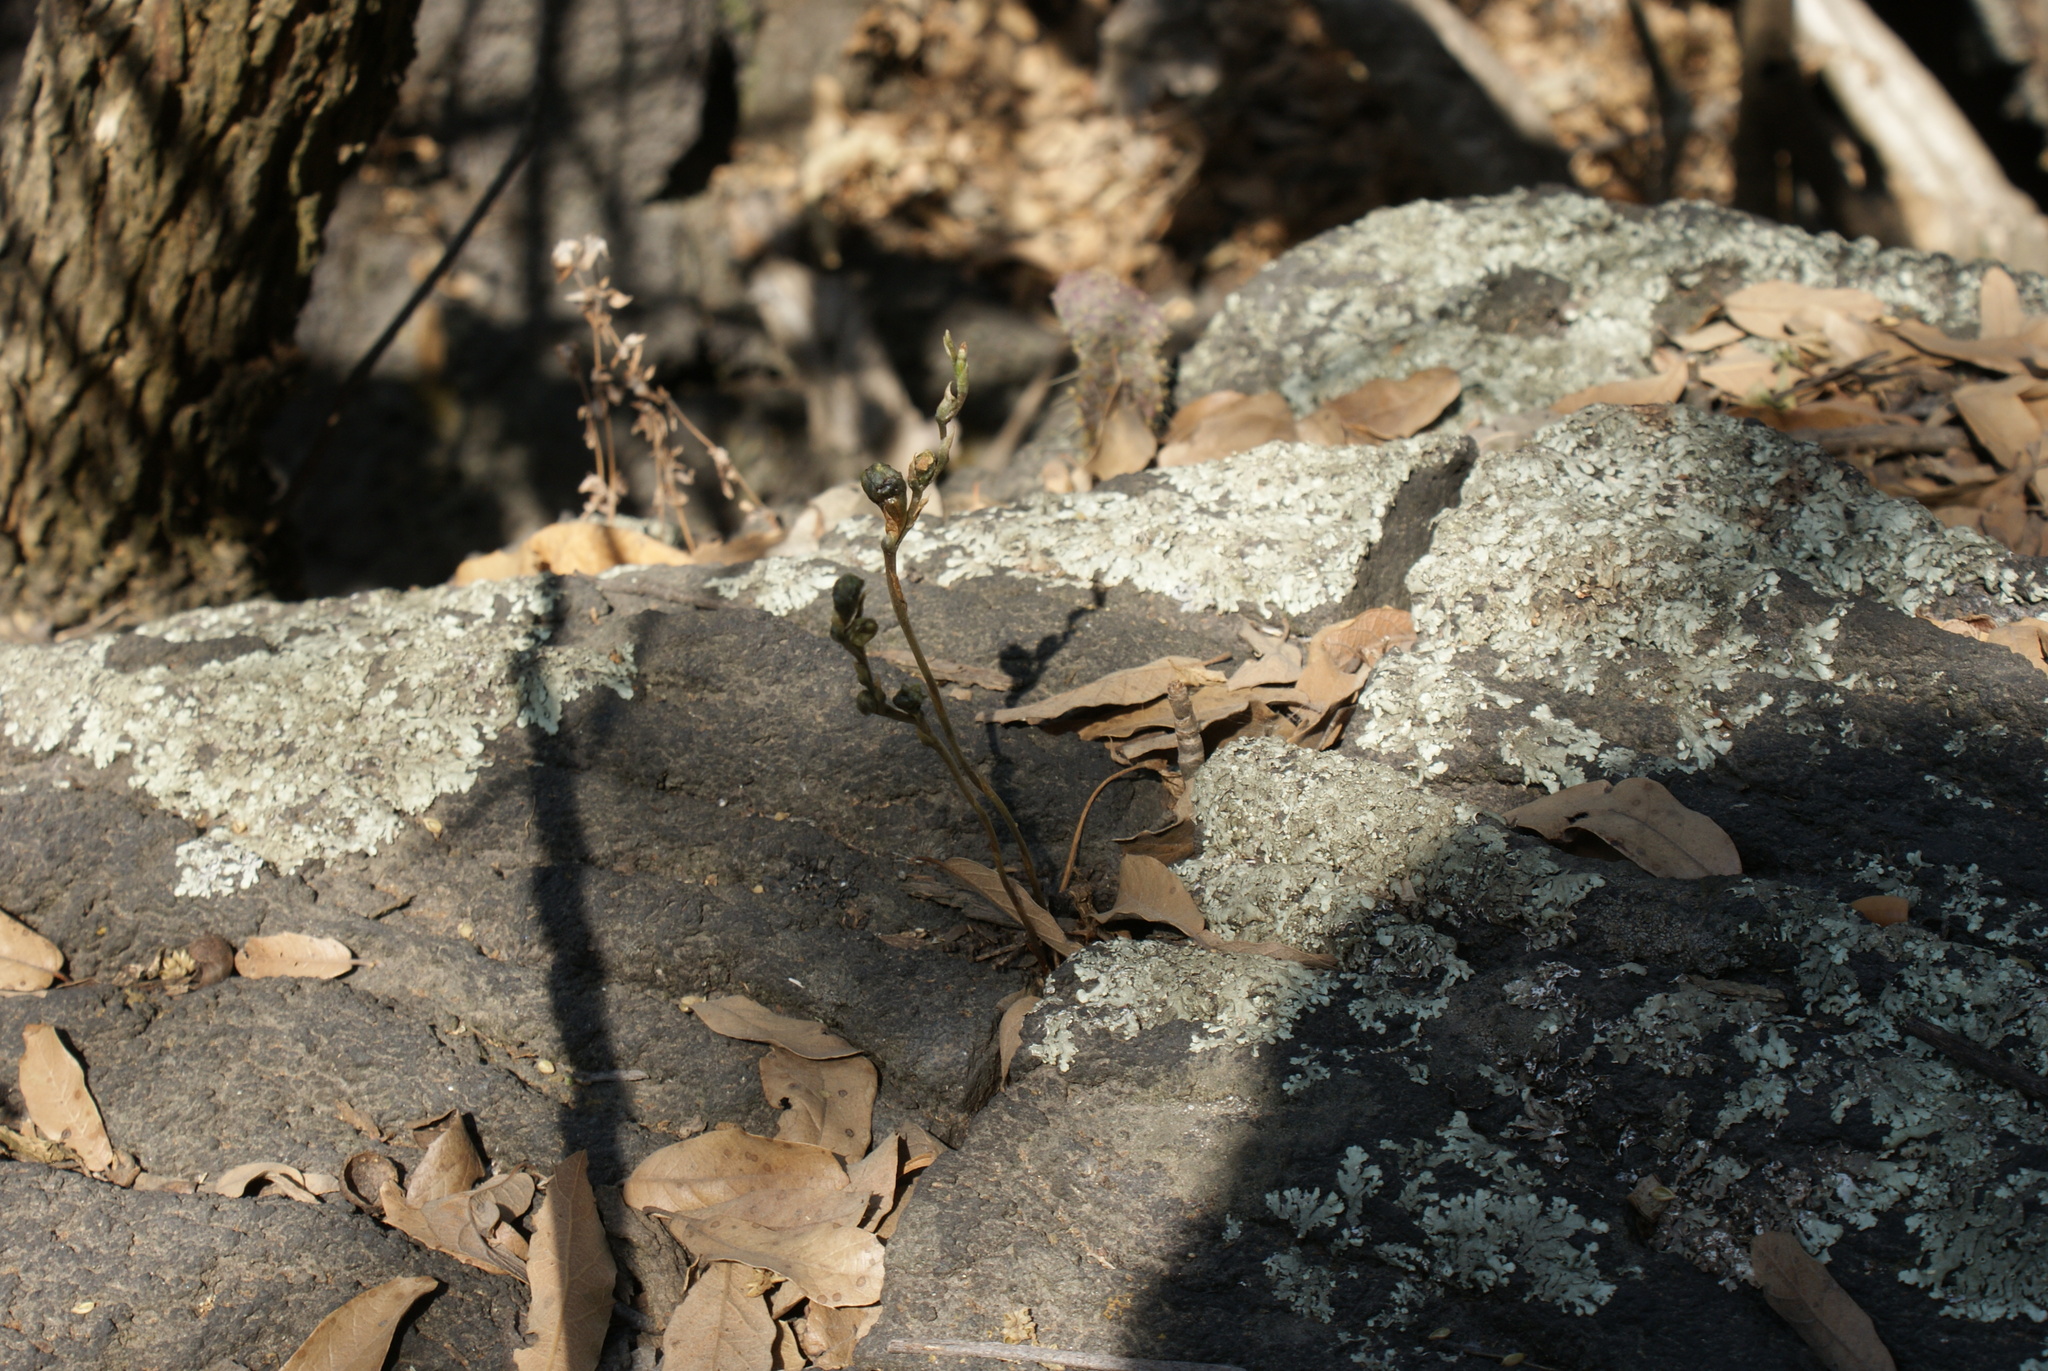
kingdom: Plantae
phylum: Tracheophyta
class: Liliopsida
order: Asparagales
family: Orchidaceae
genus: Microthelys
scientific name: Microthelys minutiflora
